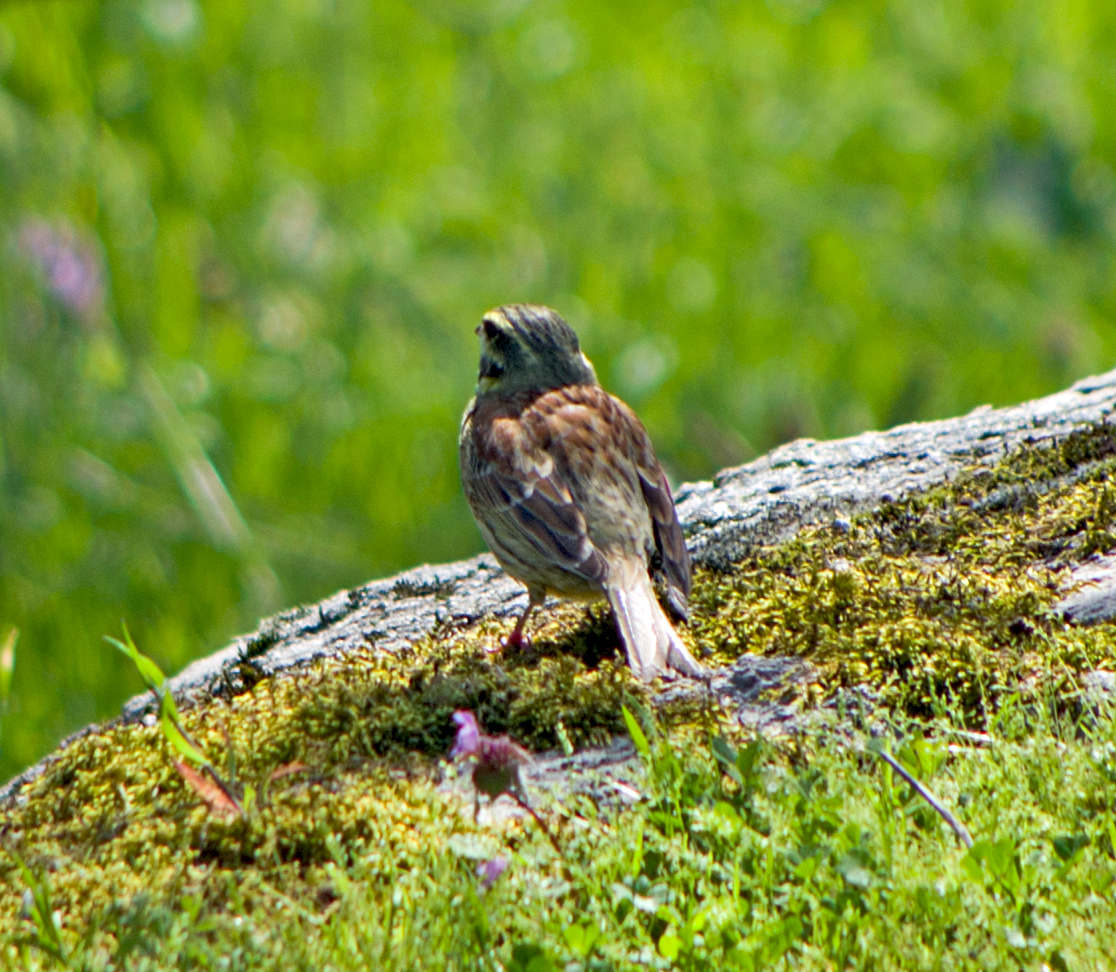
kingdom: Animalia
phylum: Chordata
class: Aves
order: Passeriformes
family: Emberizidae
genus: Emberiza
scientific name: Emberiza cirlus
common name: Cirl bunting
